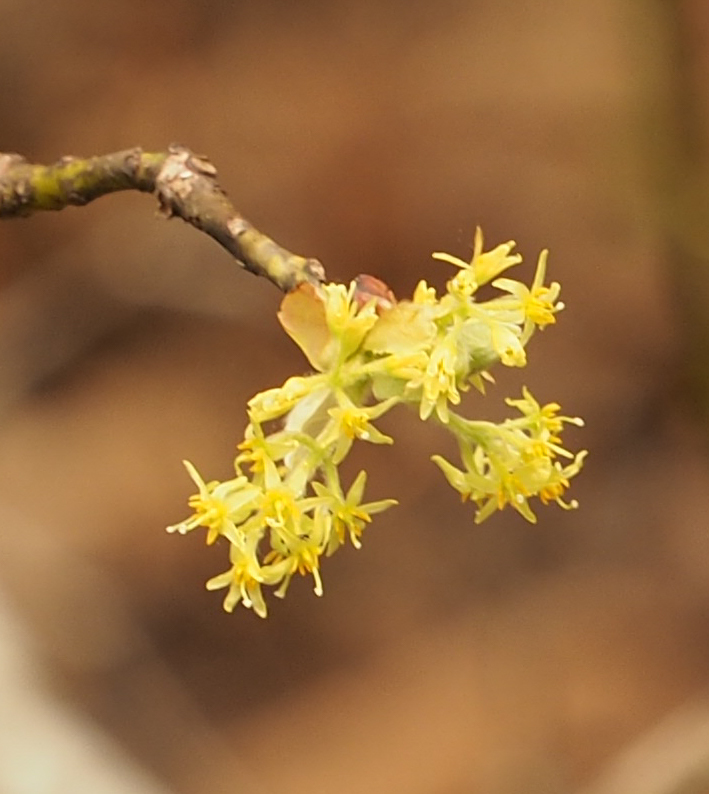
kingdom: Plantae
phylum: Tracheophyta
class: Magnoliopsida
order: Laurales
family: Lauraceae
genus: Sassafras
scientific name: Sassafras albidum
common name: Sassafras
